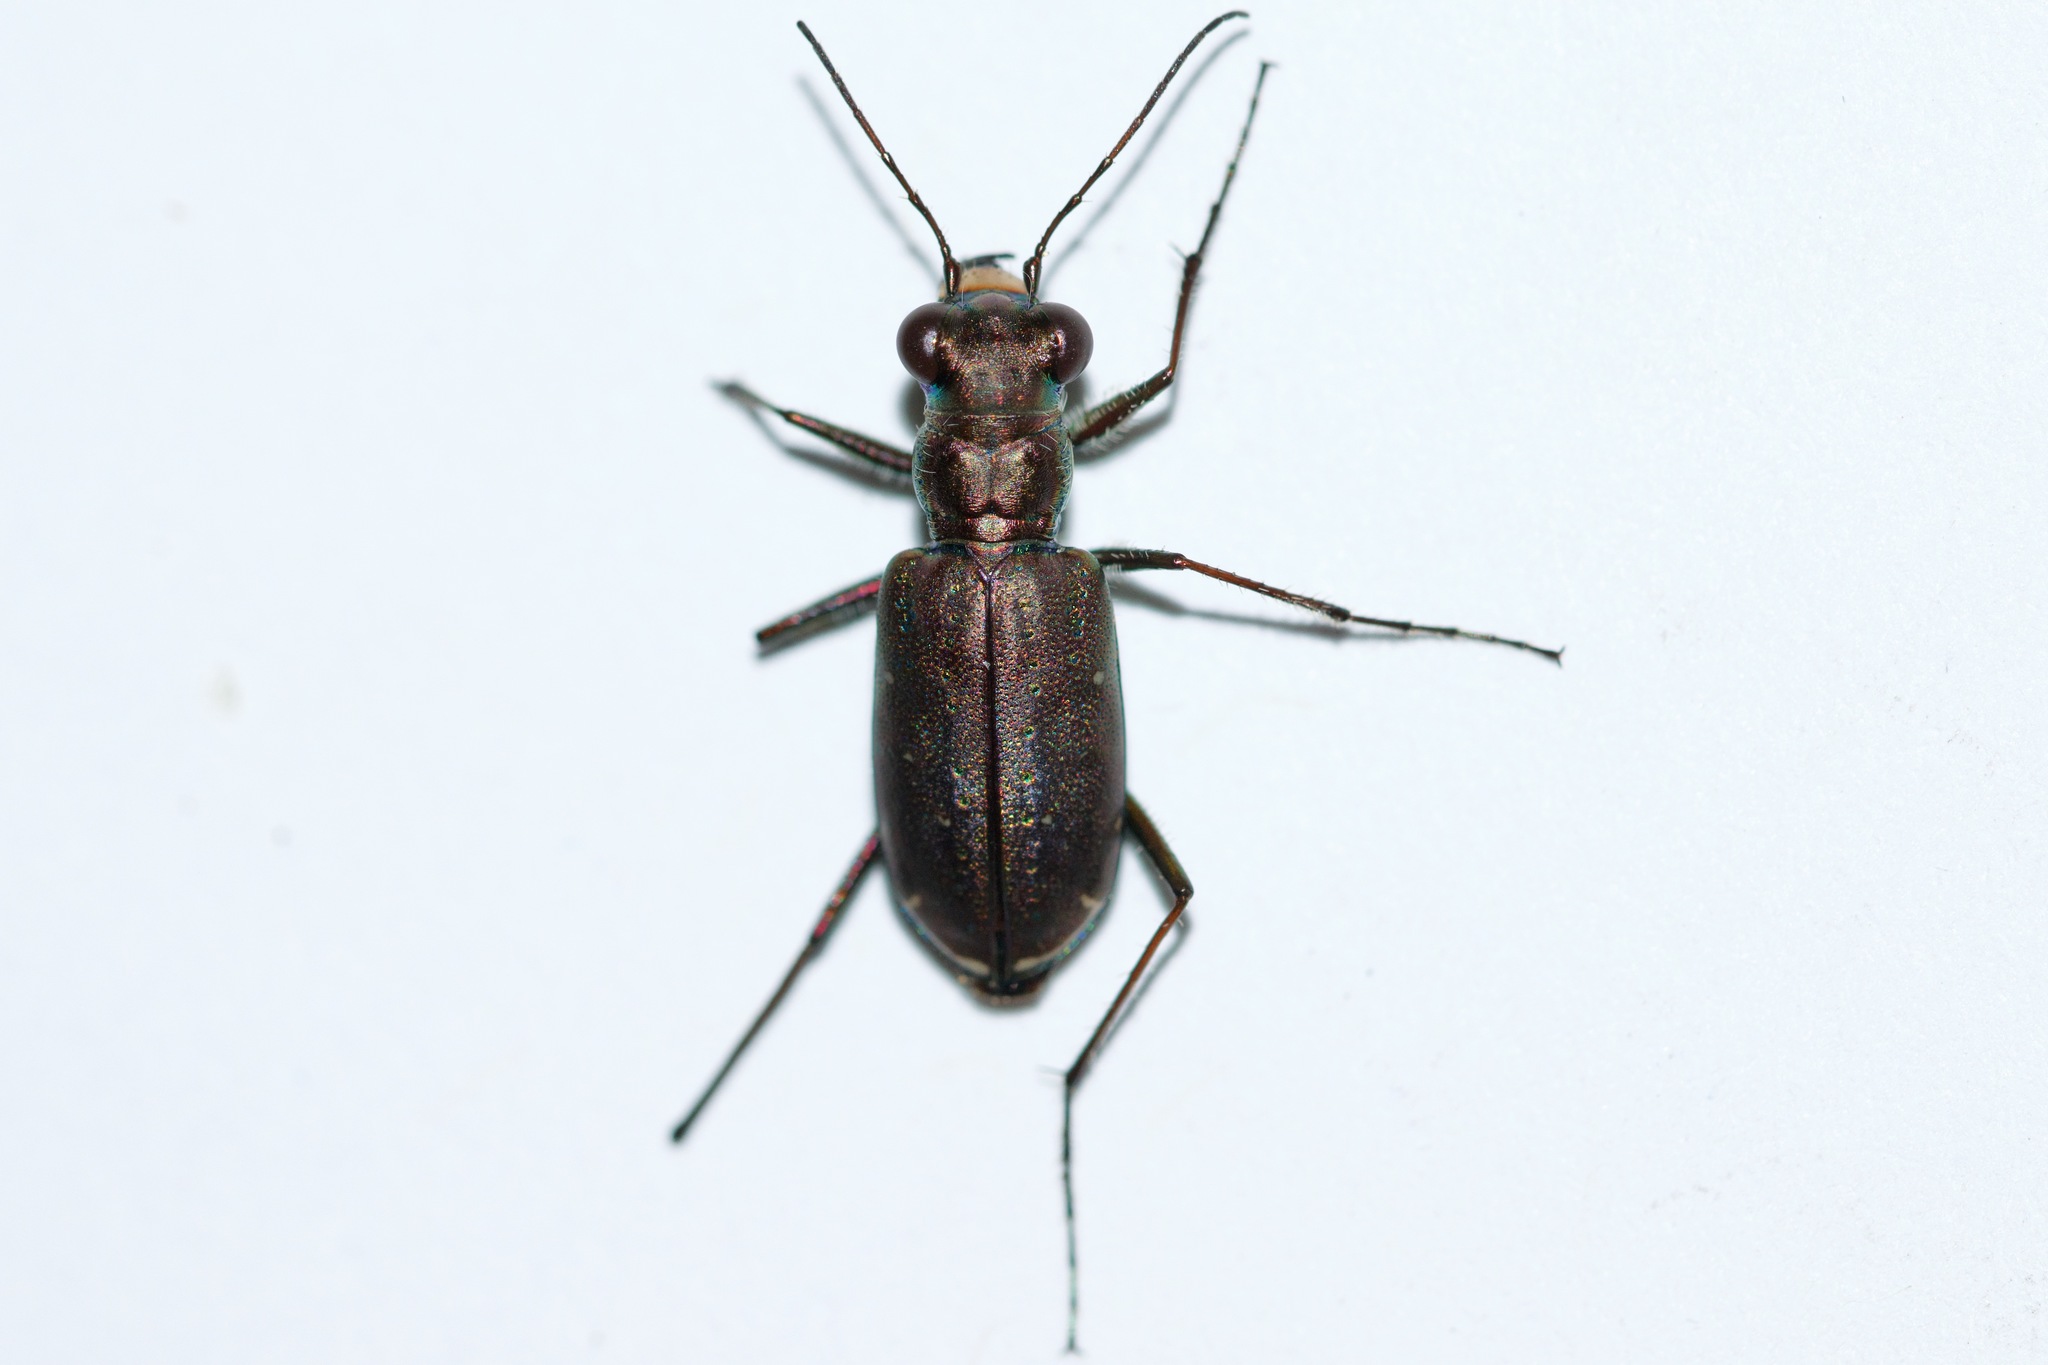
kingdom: Animalia
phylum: Arthropoda
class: Insecta
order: Coleoptera
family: Carabidae
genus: Cicindela
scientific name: Cicindela punctulata
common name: Punctured tiger beetle
